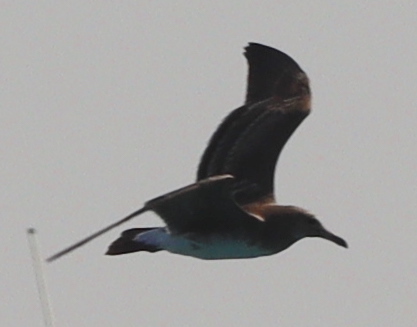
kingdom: Animalia
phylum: Chordata
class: Aves
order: Charadriiformes
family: Laridae
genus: Ichthyaetus
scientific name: Ichthyaetus hemprichii
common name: Sooty gull
